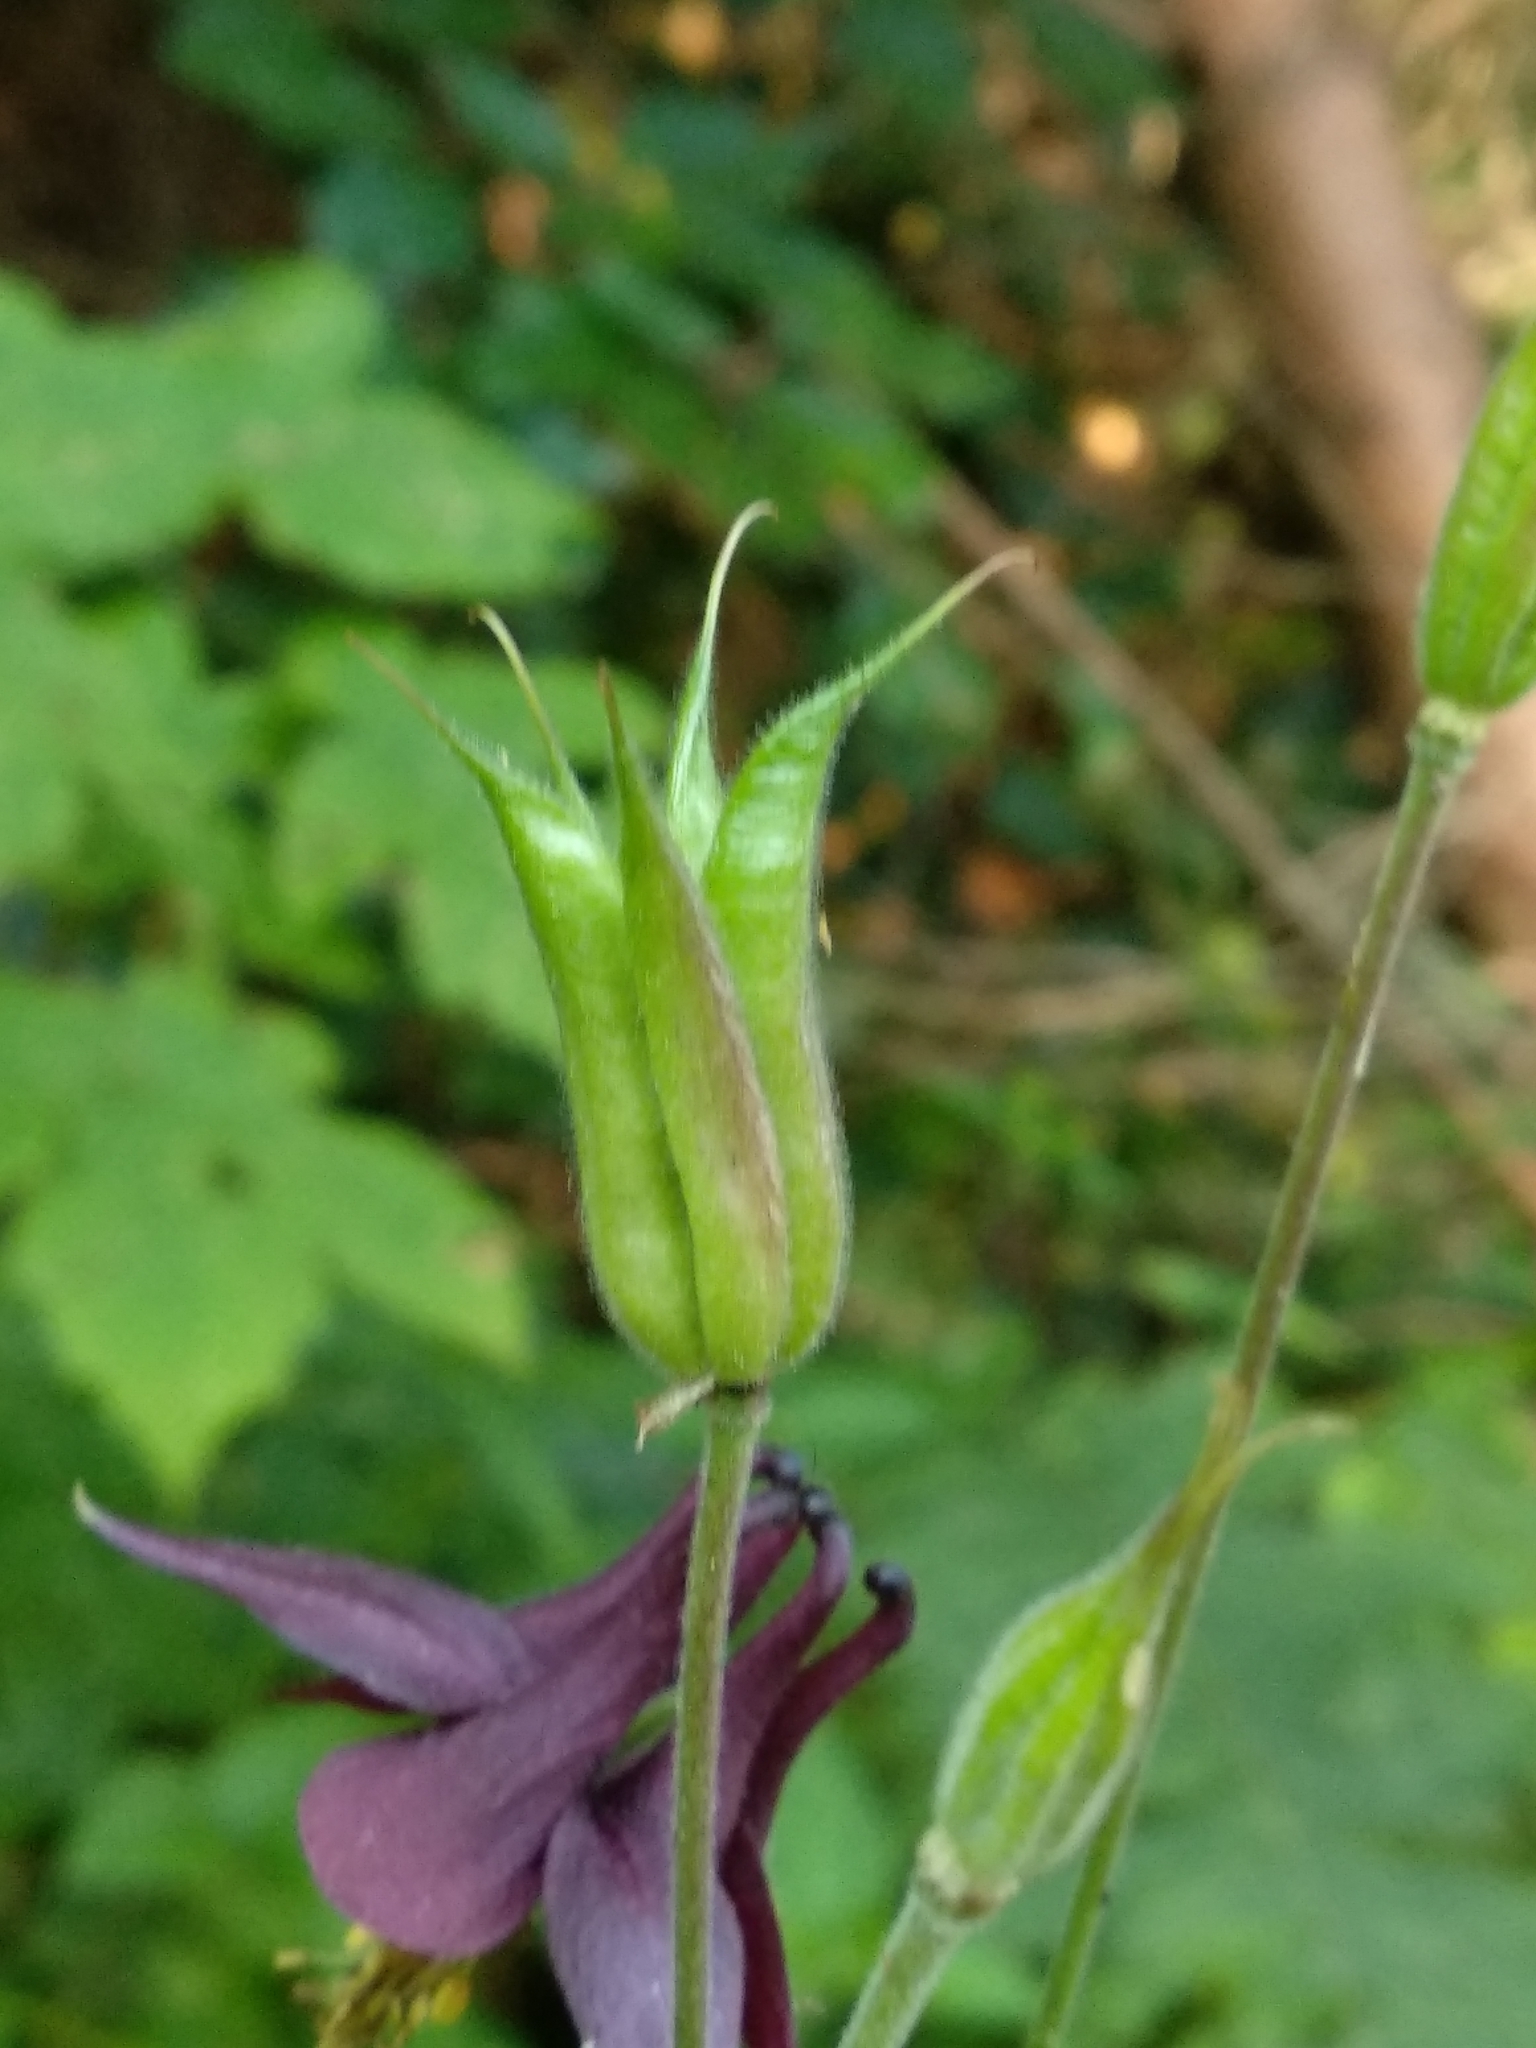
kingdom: Plantae
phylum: Tracheophyta
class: Magnoliopsida
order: Ranunculales
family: Ranunculaceae
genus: Aquilegia
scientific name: Aquilegia atrata
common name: Dark columbine
